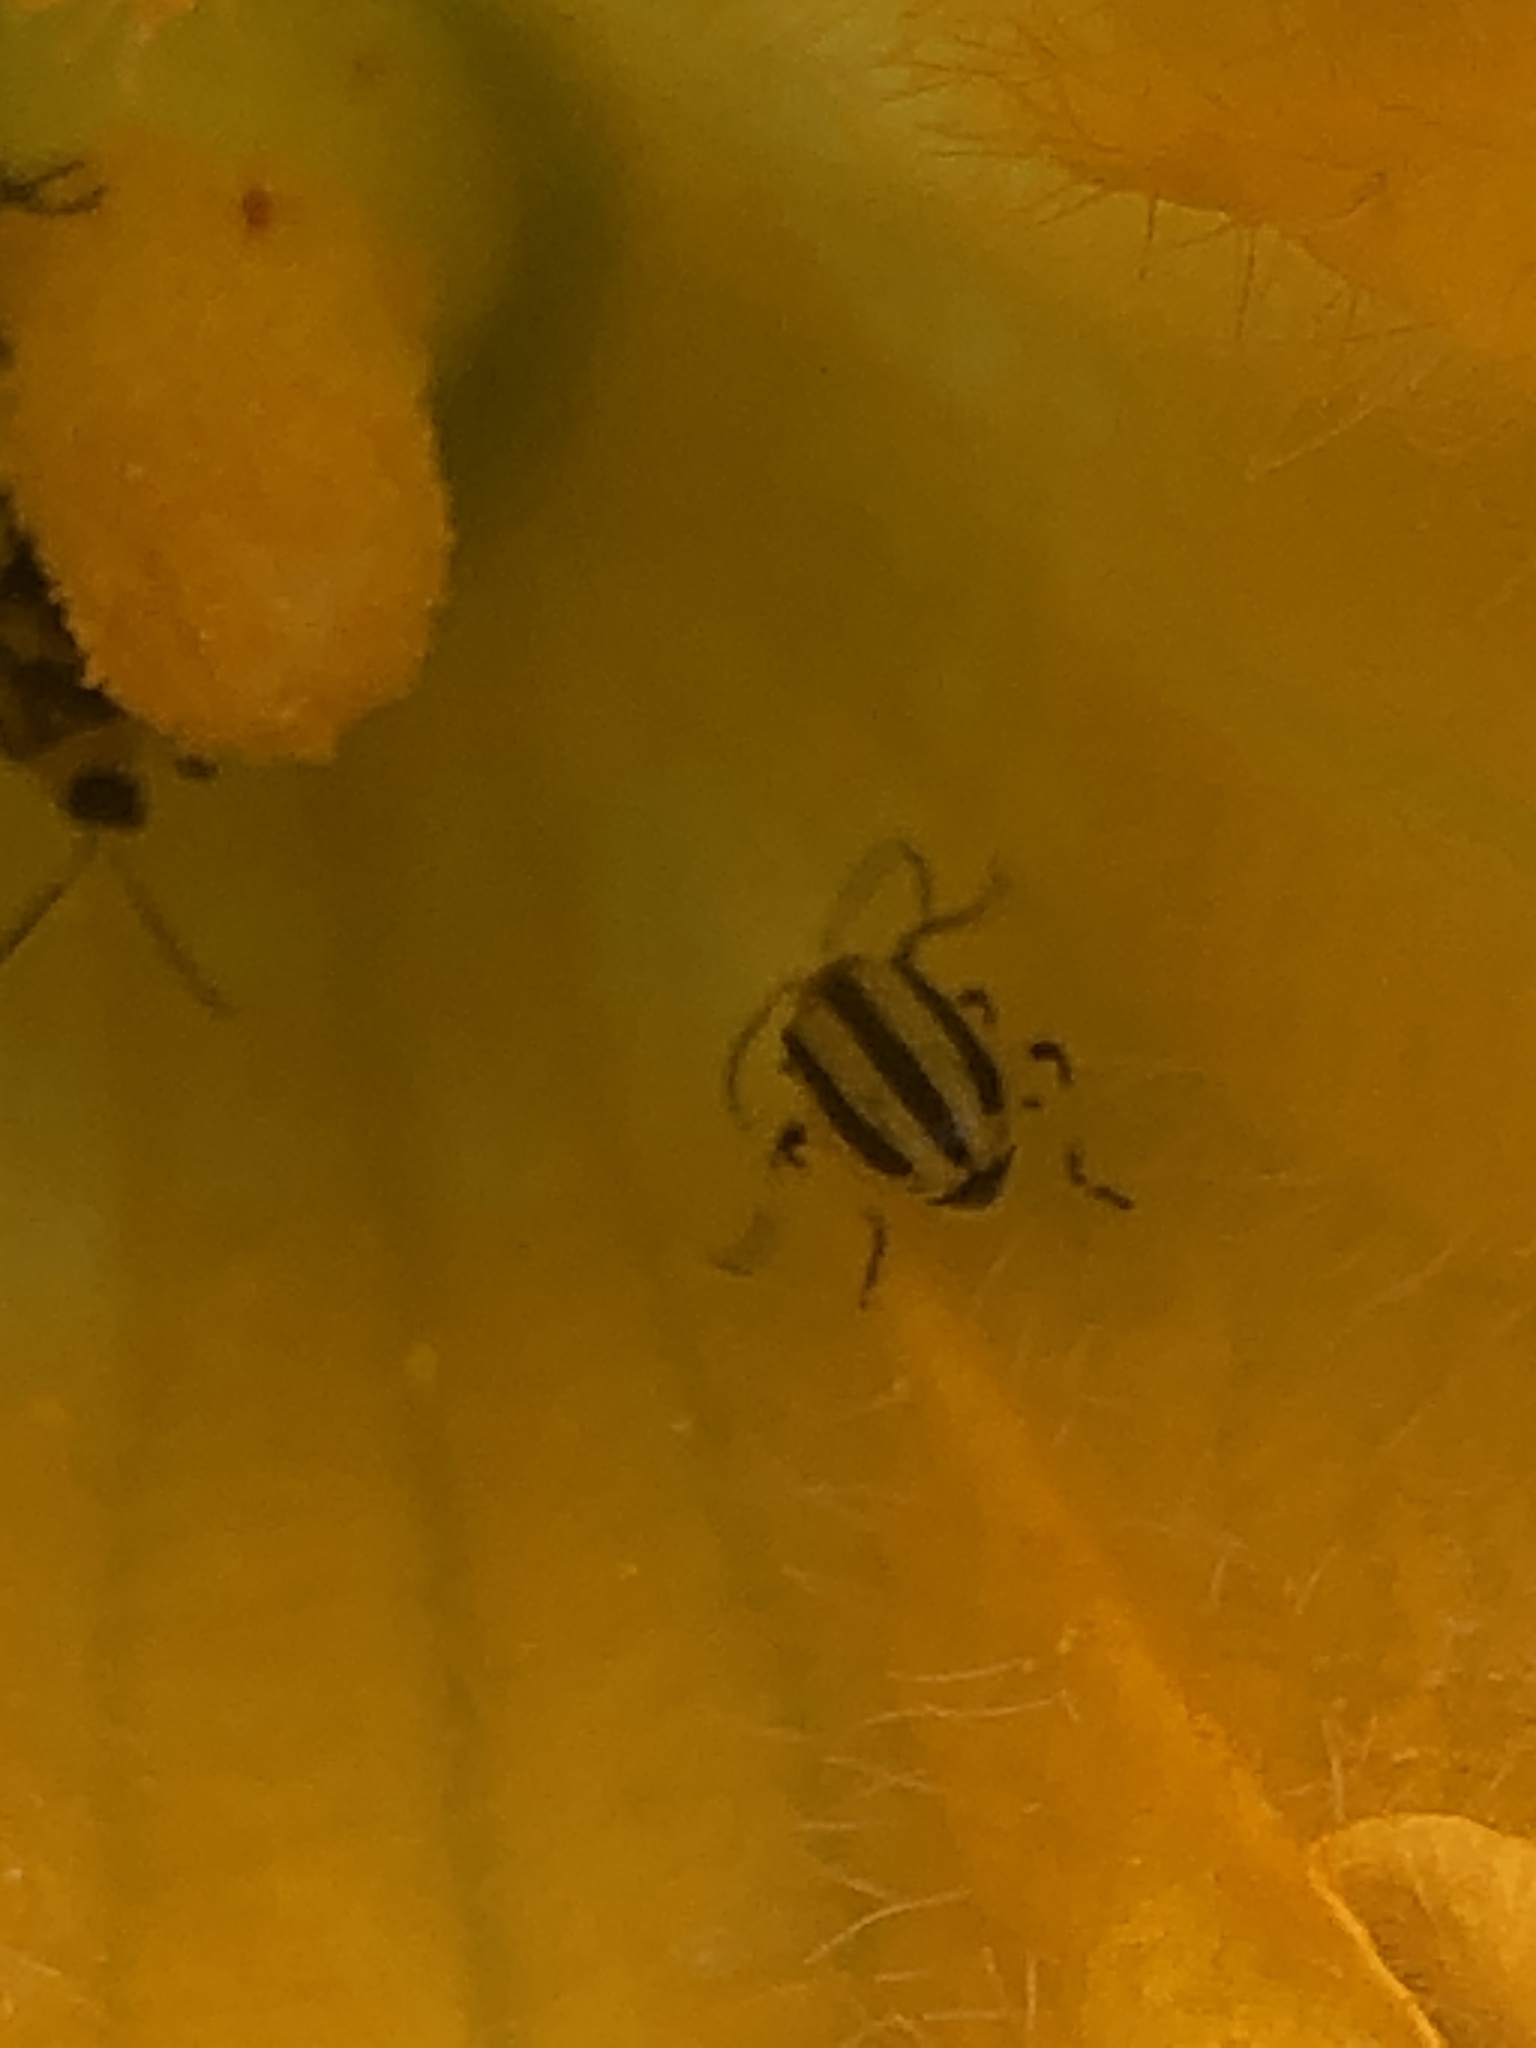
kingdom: Animalia
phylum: Arthropoda
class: Insecta
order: Coleoptera
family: Chrysomelidae
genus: Acalymma
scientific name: Acalymma vittatum
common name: Striped cucumber beetle
